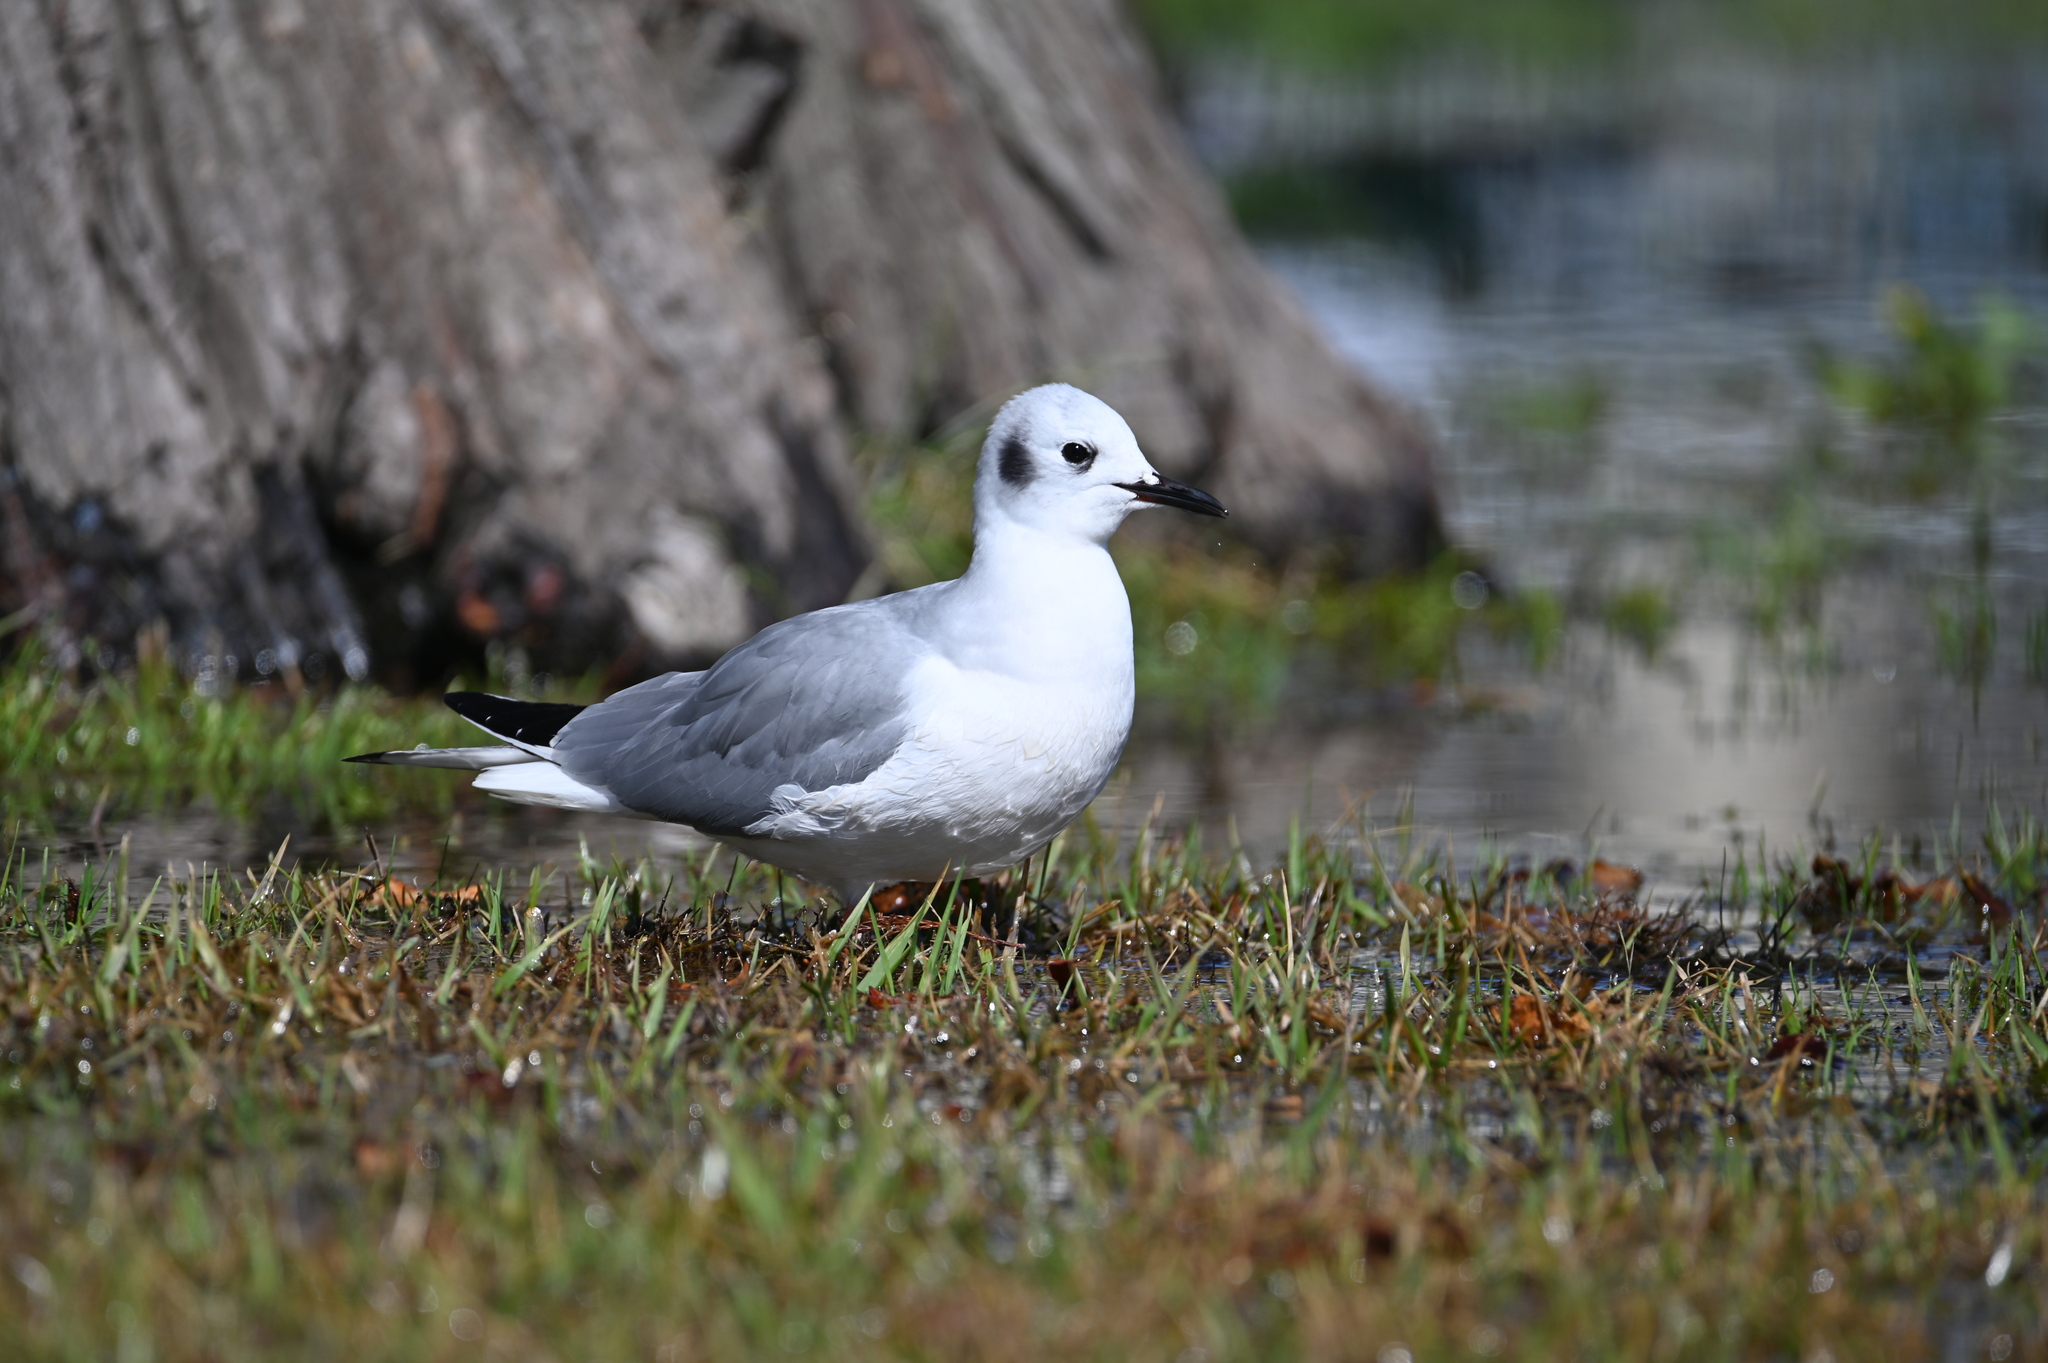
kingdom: Animalia
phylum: Chordata
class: Aves
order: Charadriiformes
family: Laridae
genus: Chroicocephalus
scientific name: Chroicocephalus philadelphia
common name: Bonaparte's gull
